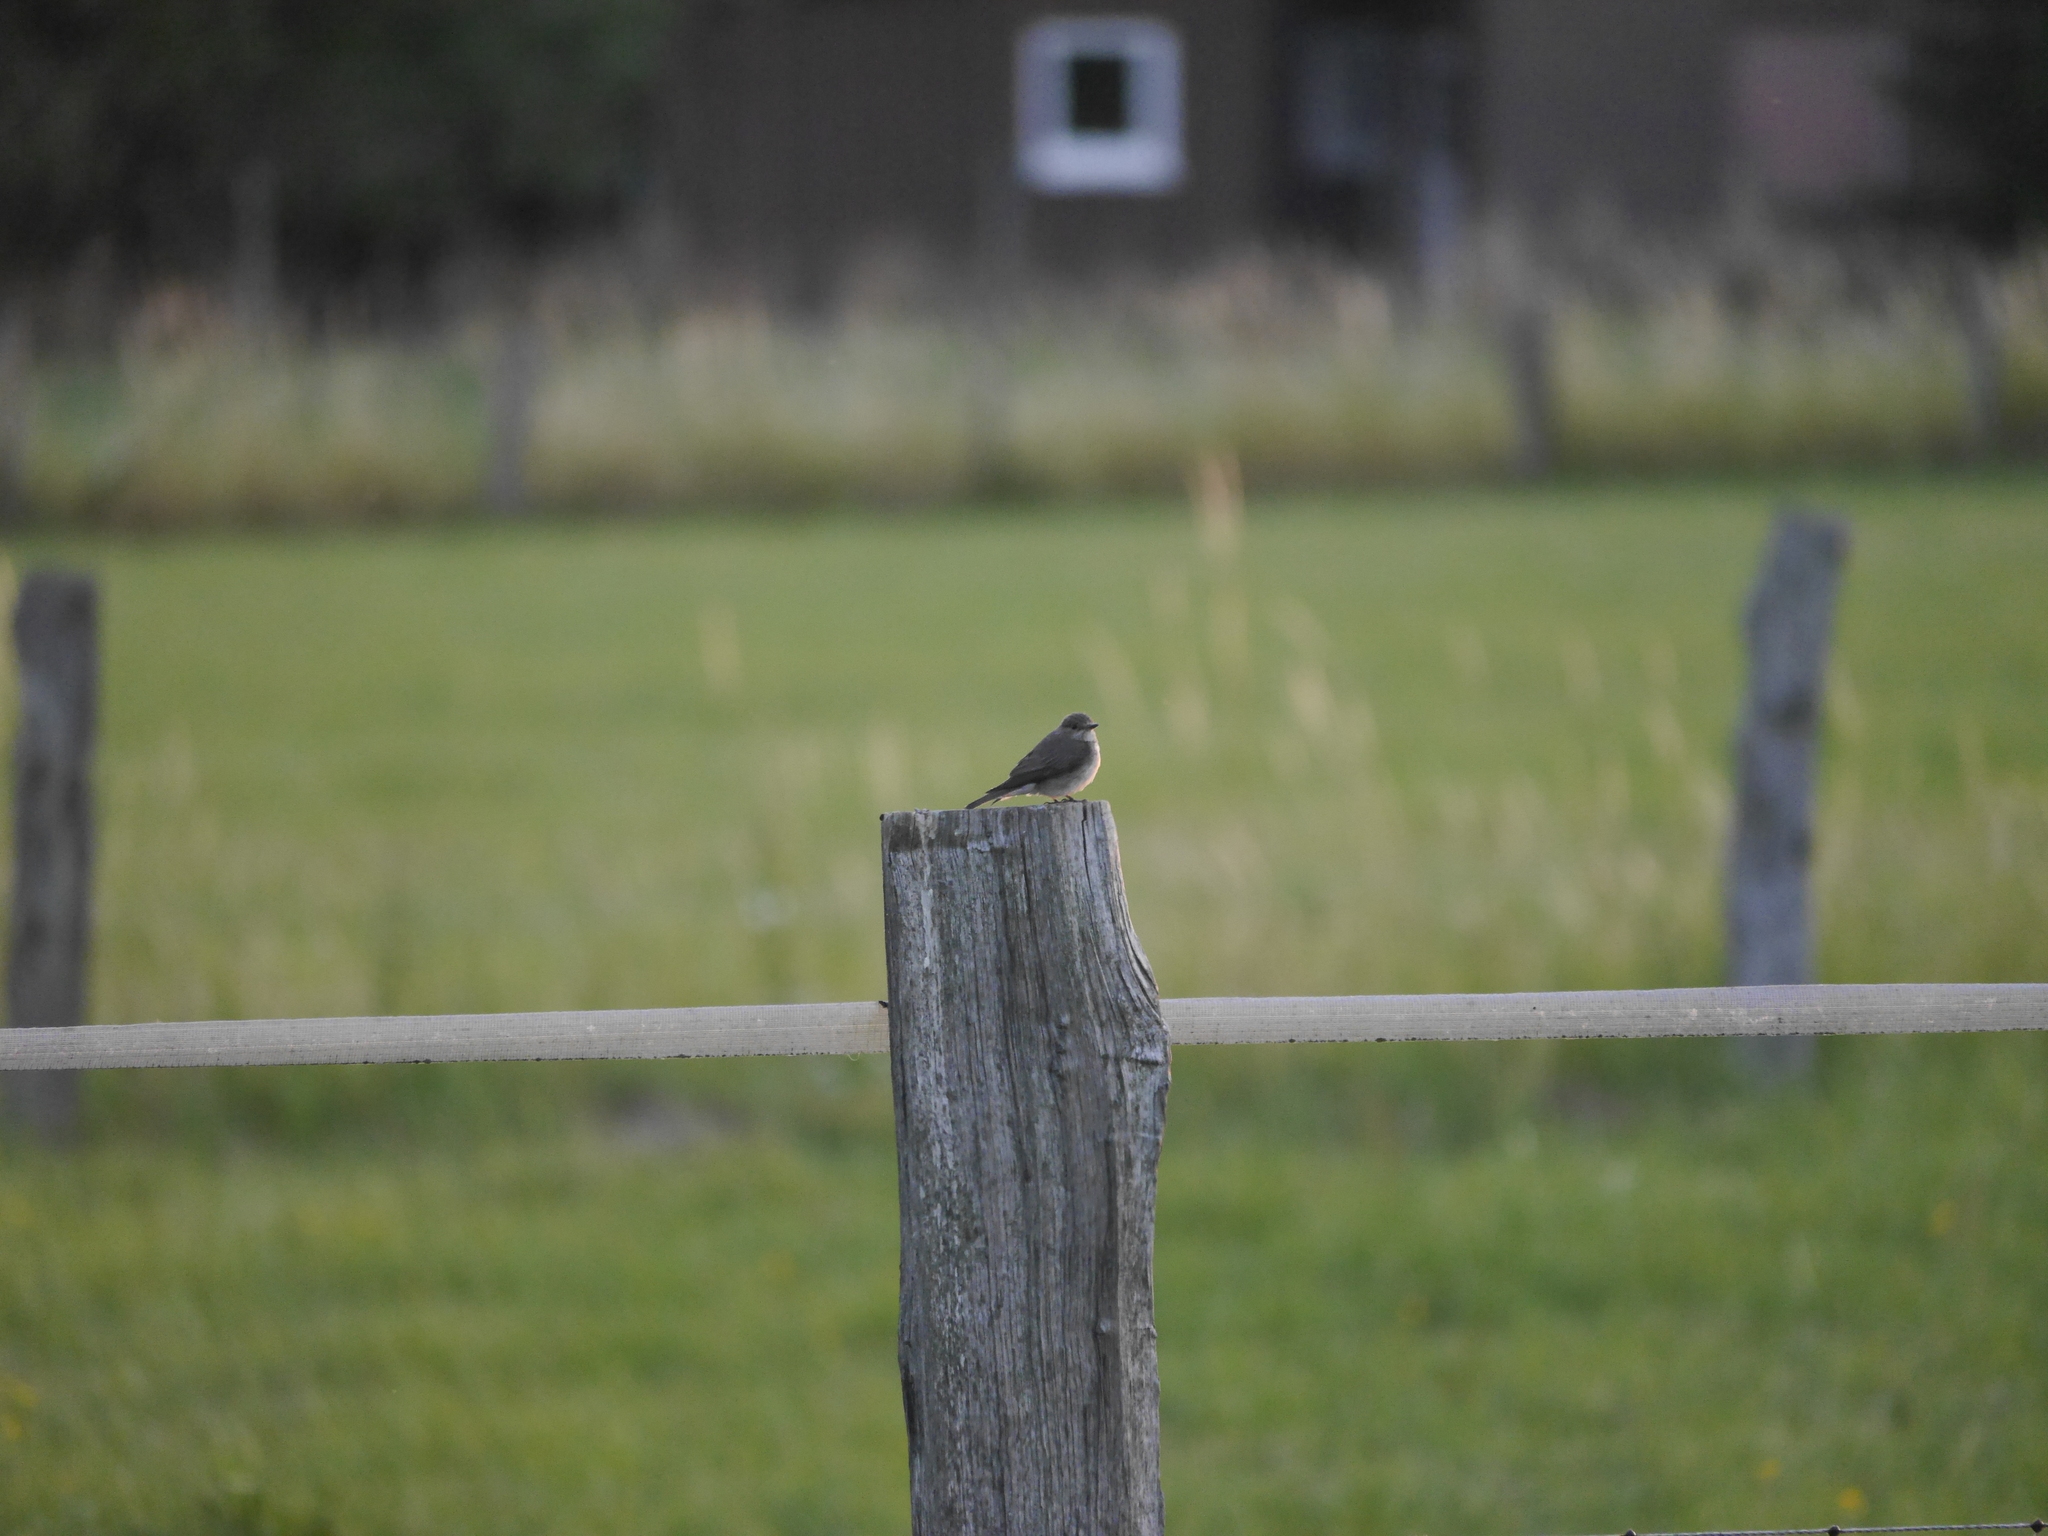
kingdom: Animalia
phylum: Chordata
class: Aves
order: Passeriformes
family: Muscicapidae
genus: Muscicapa
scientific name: Muscicapa striata
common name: Spotted flycatcher
